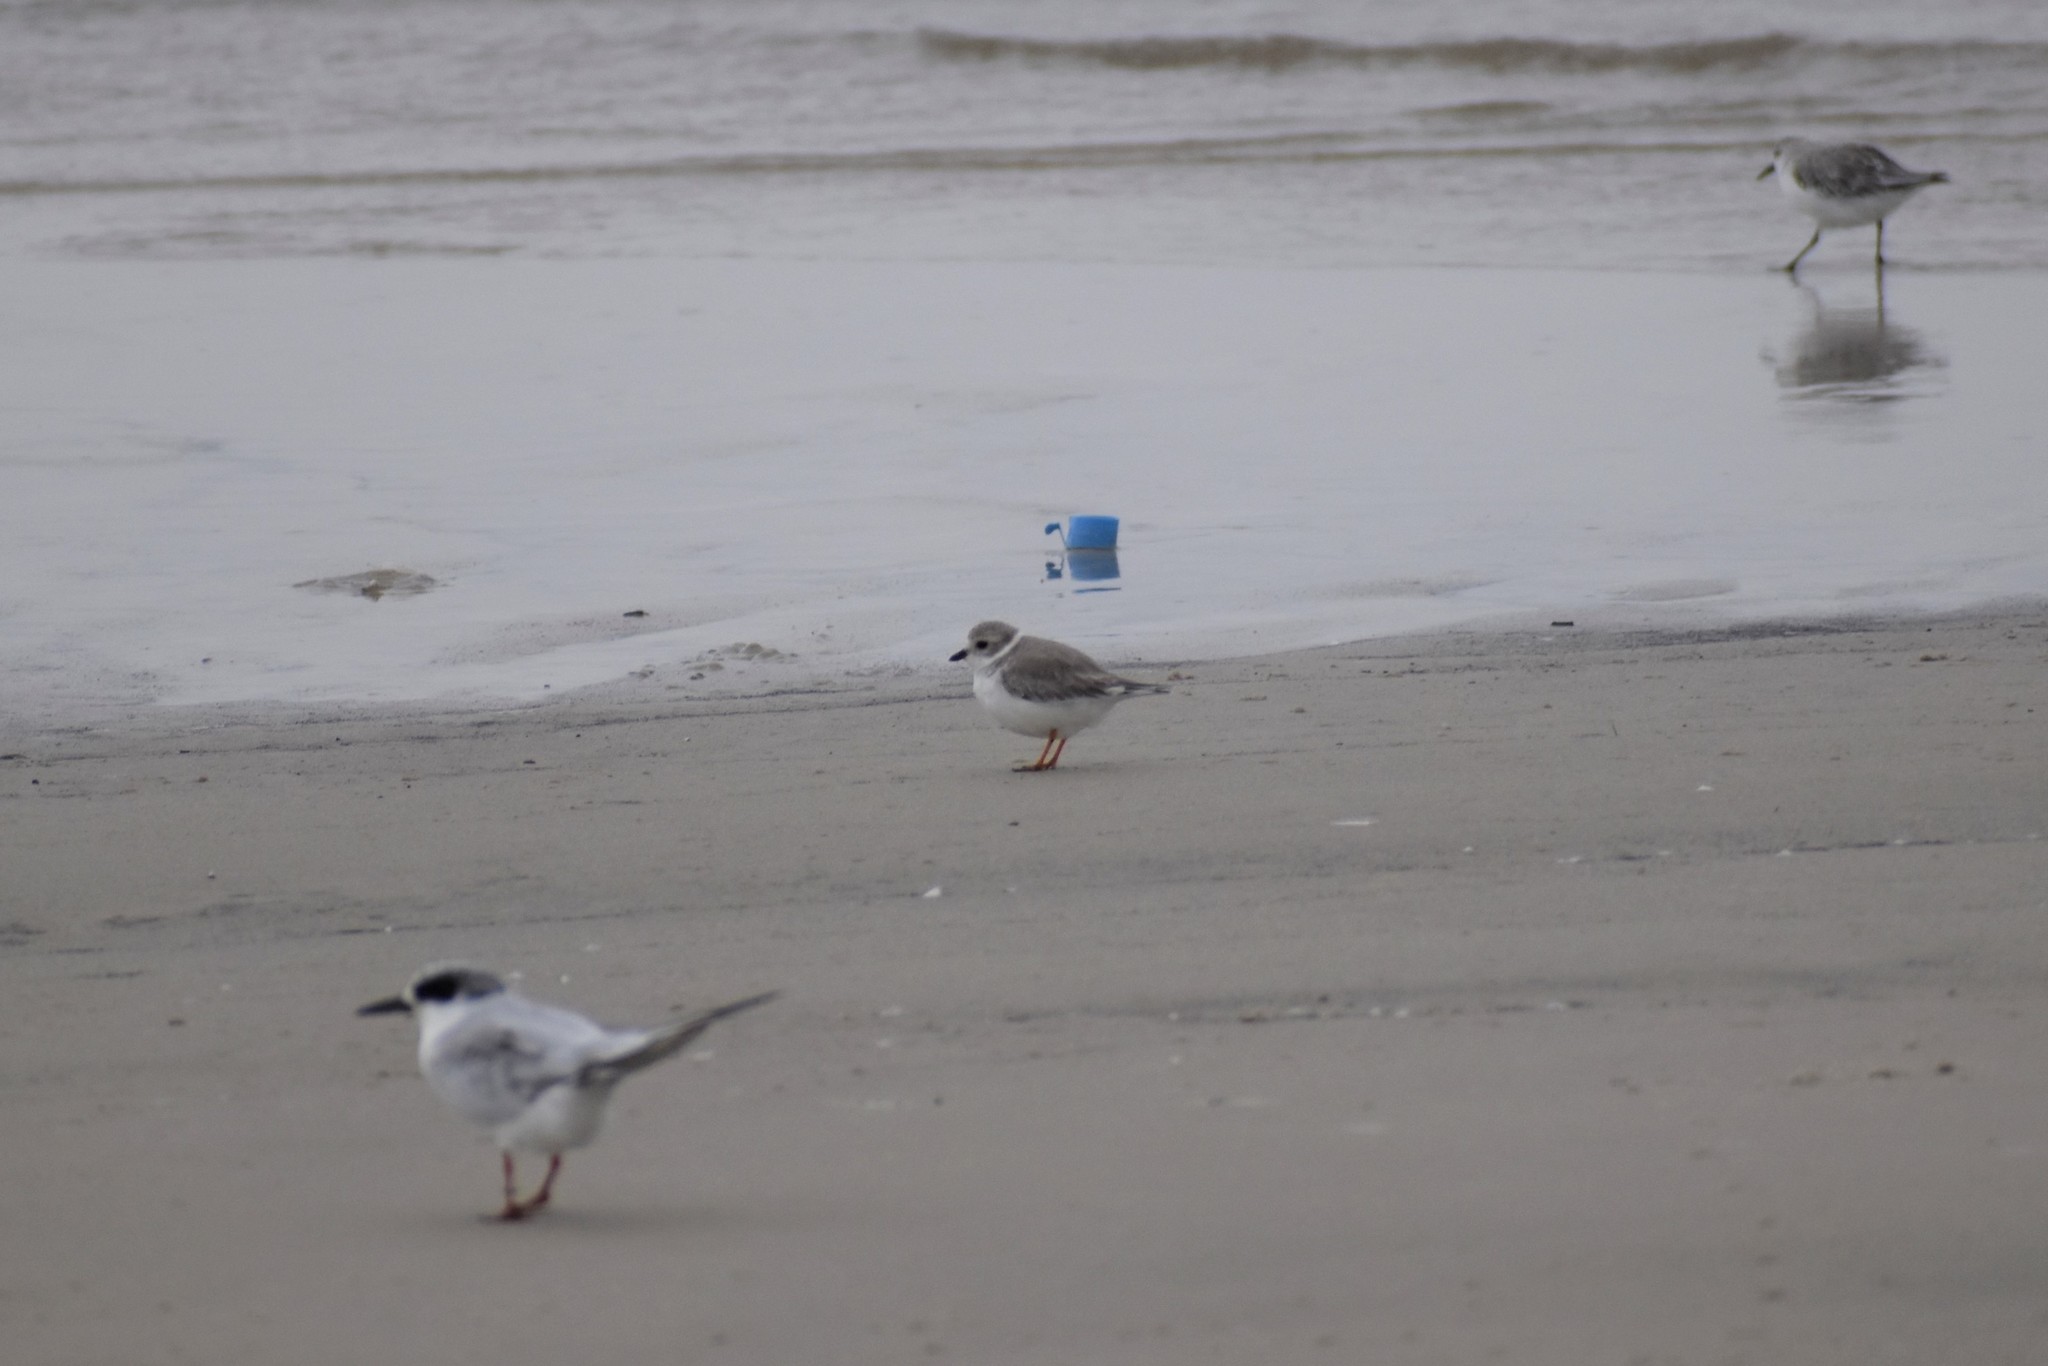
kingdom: Animalia
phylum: Chordata
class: Aves
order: Charadriiformes
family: Charadriidae
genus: Charadrius
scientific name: Charadrius melodus
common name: Piping plover
